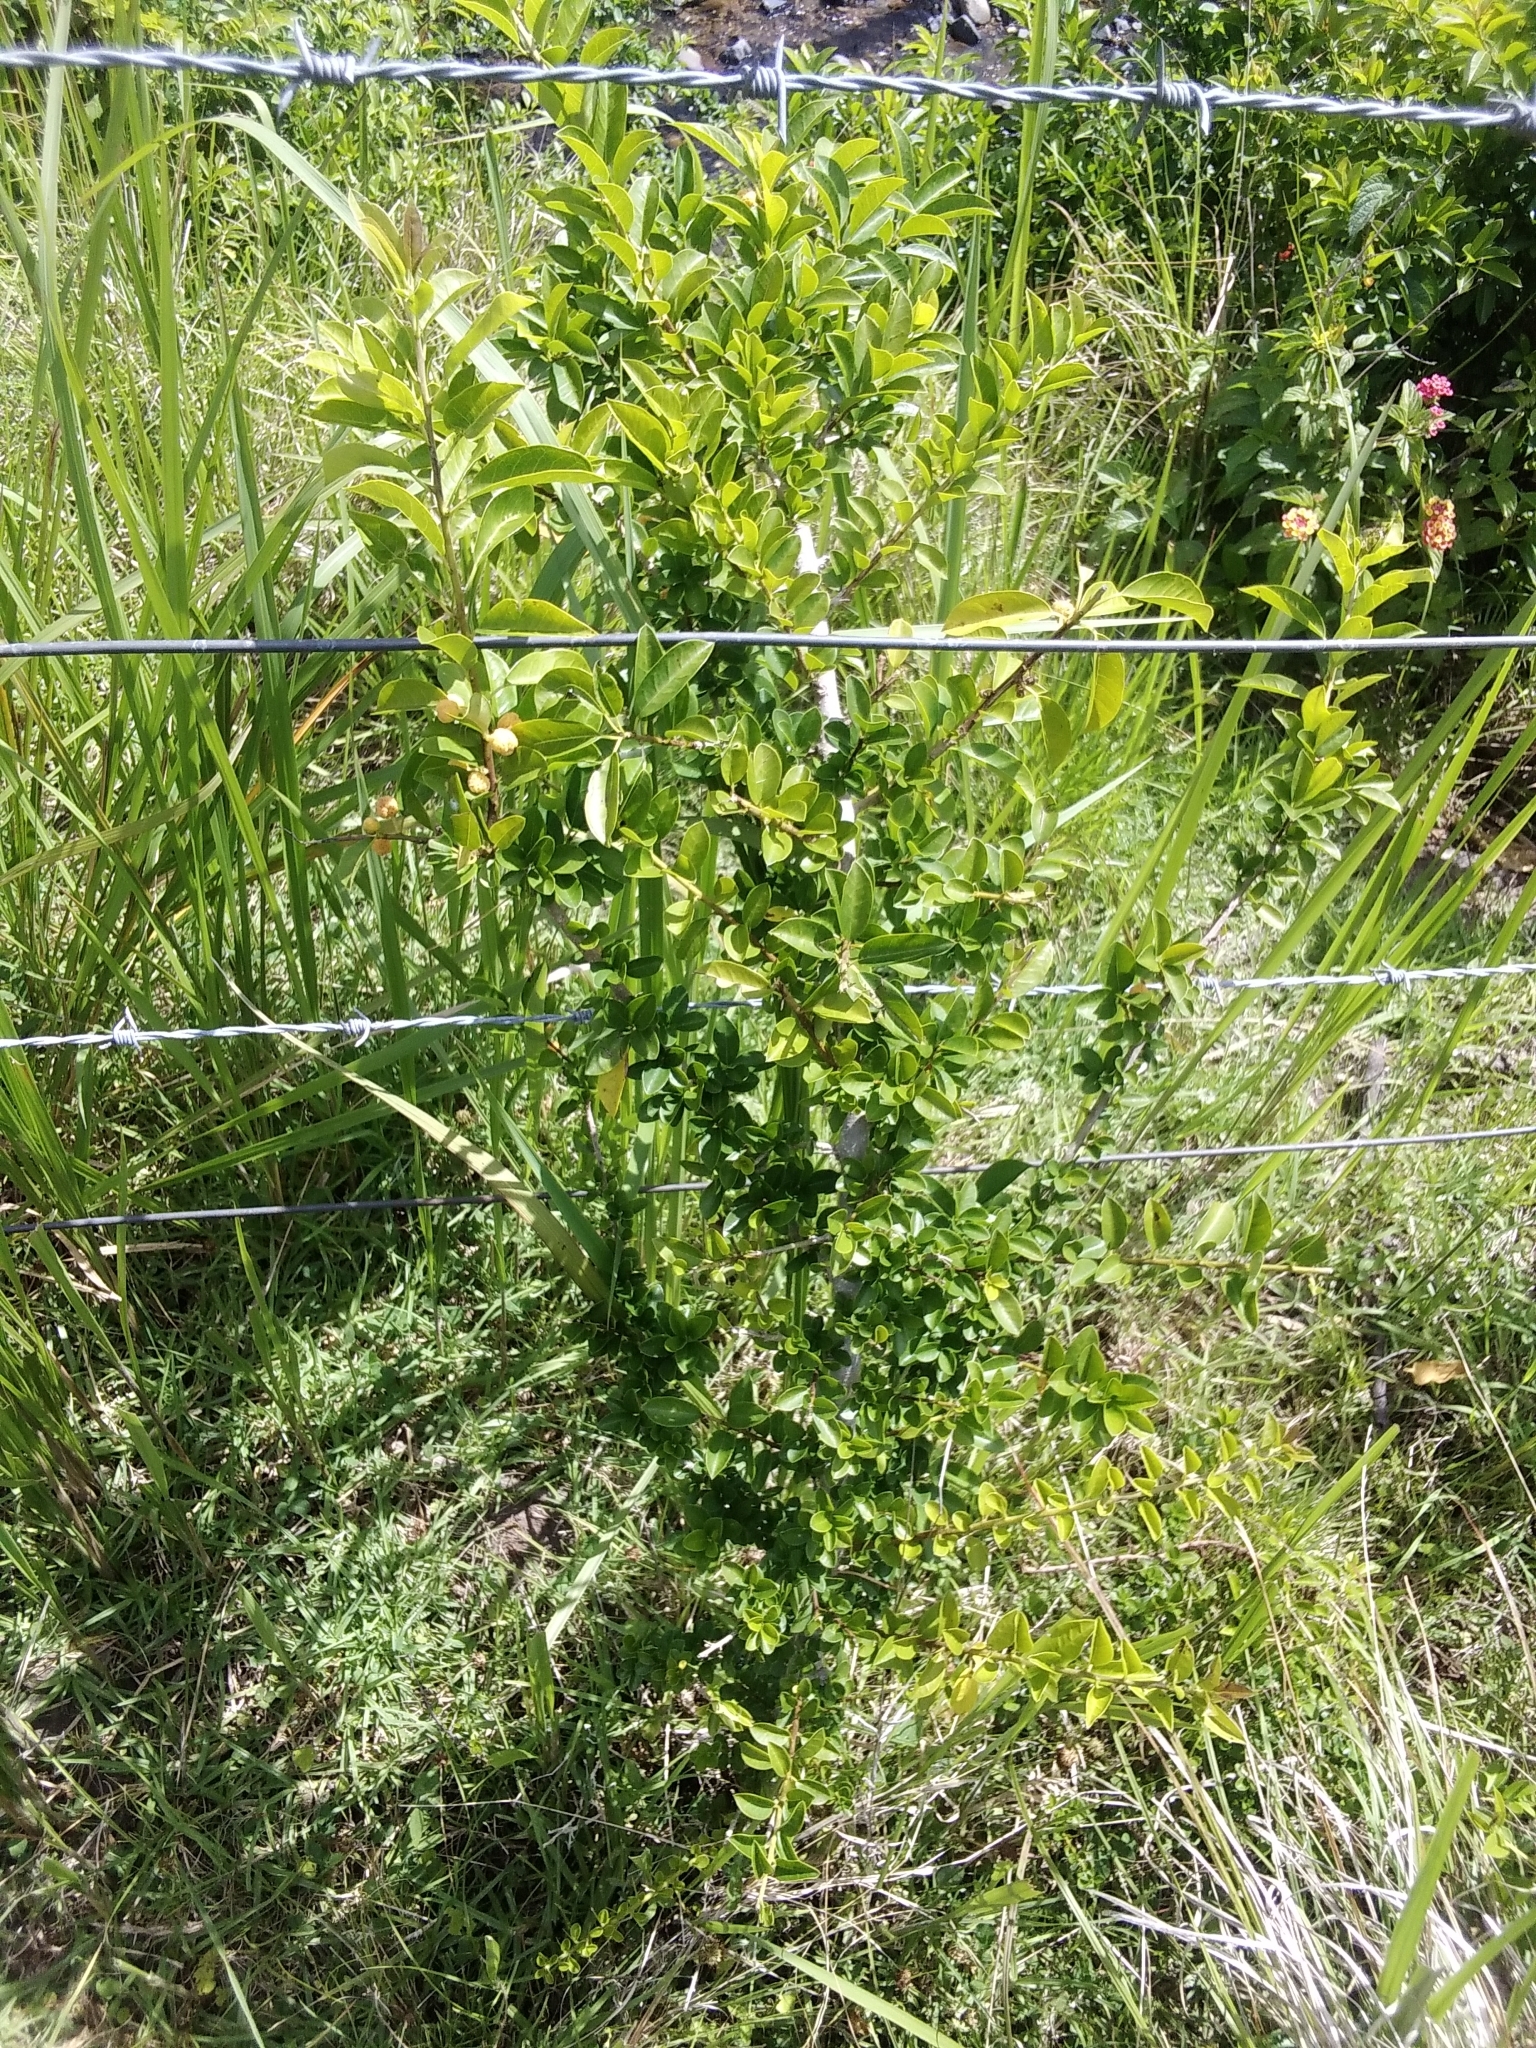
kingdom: Plantae
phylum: Tracheophyta
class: Magnoliopsida
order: Rosales
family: Moraceae
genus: Maclura
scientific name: Maclura cochinchinensis
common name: Cockspurthorn
